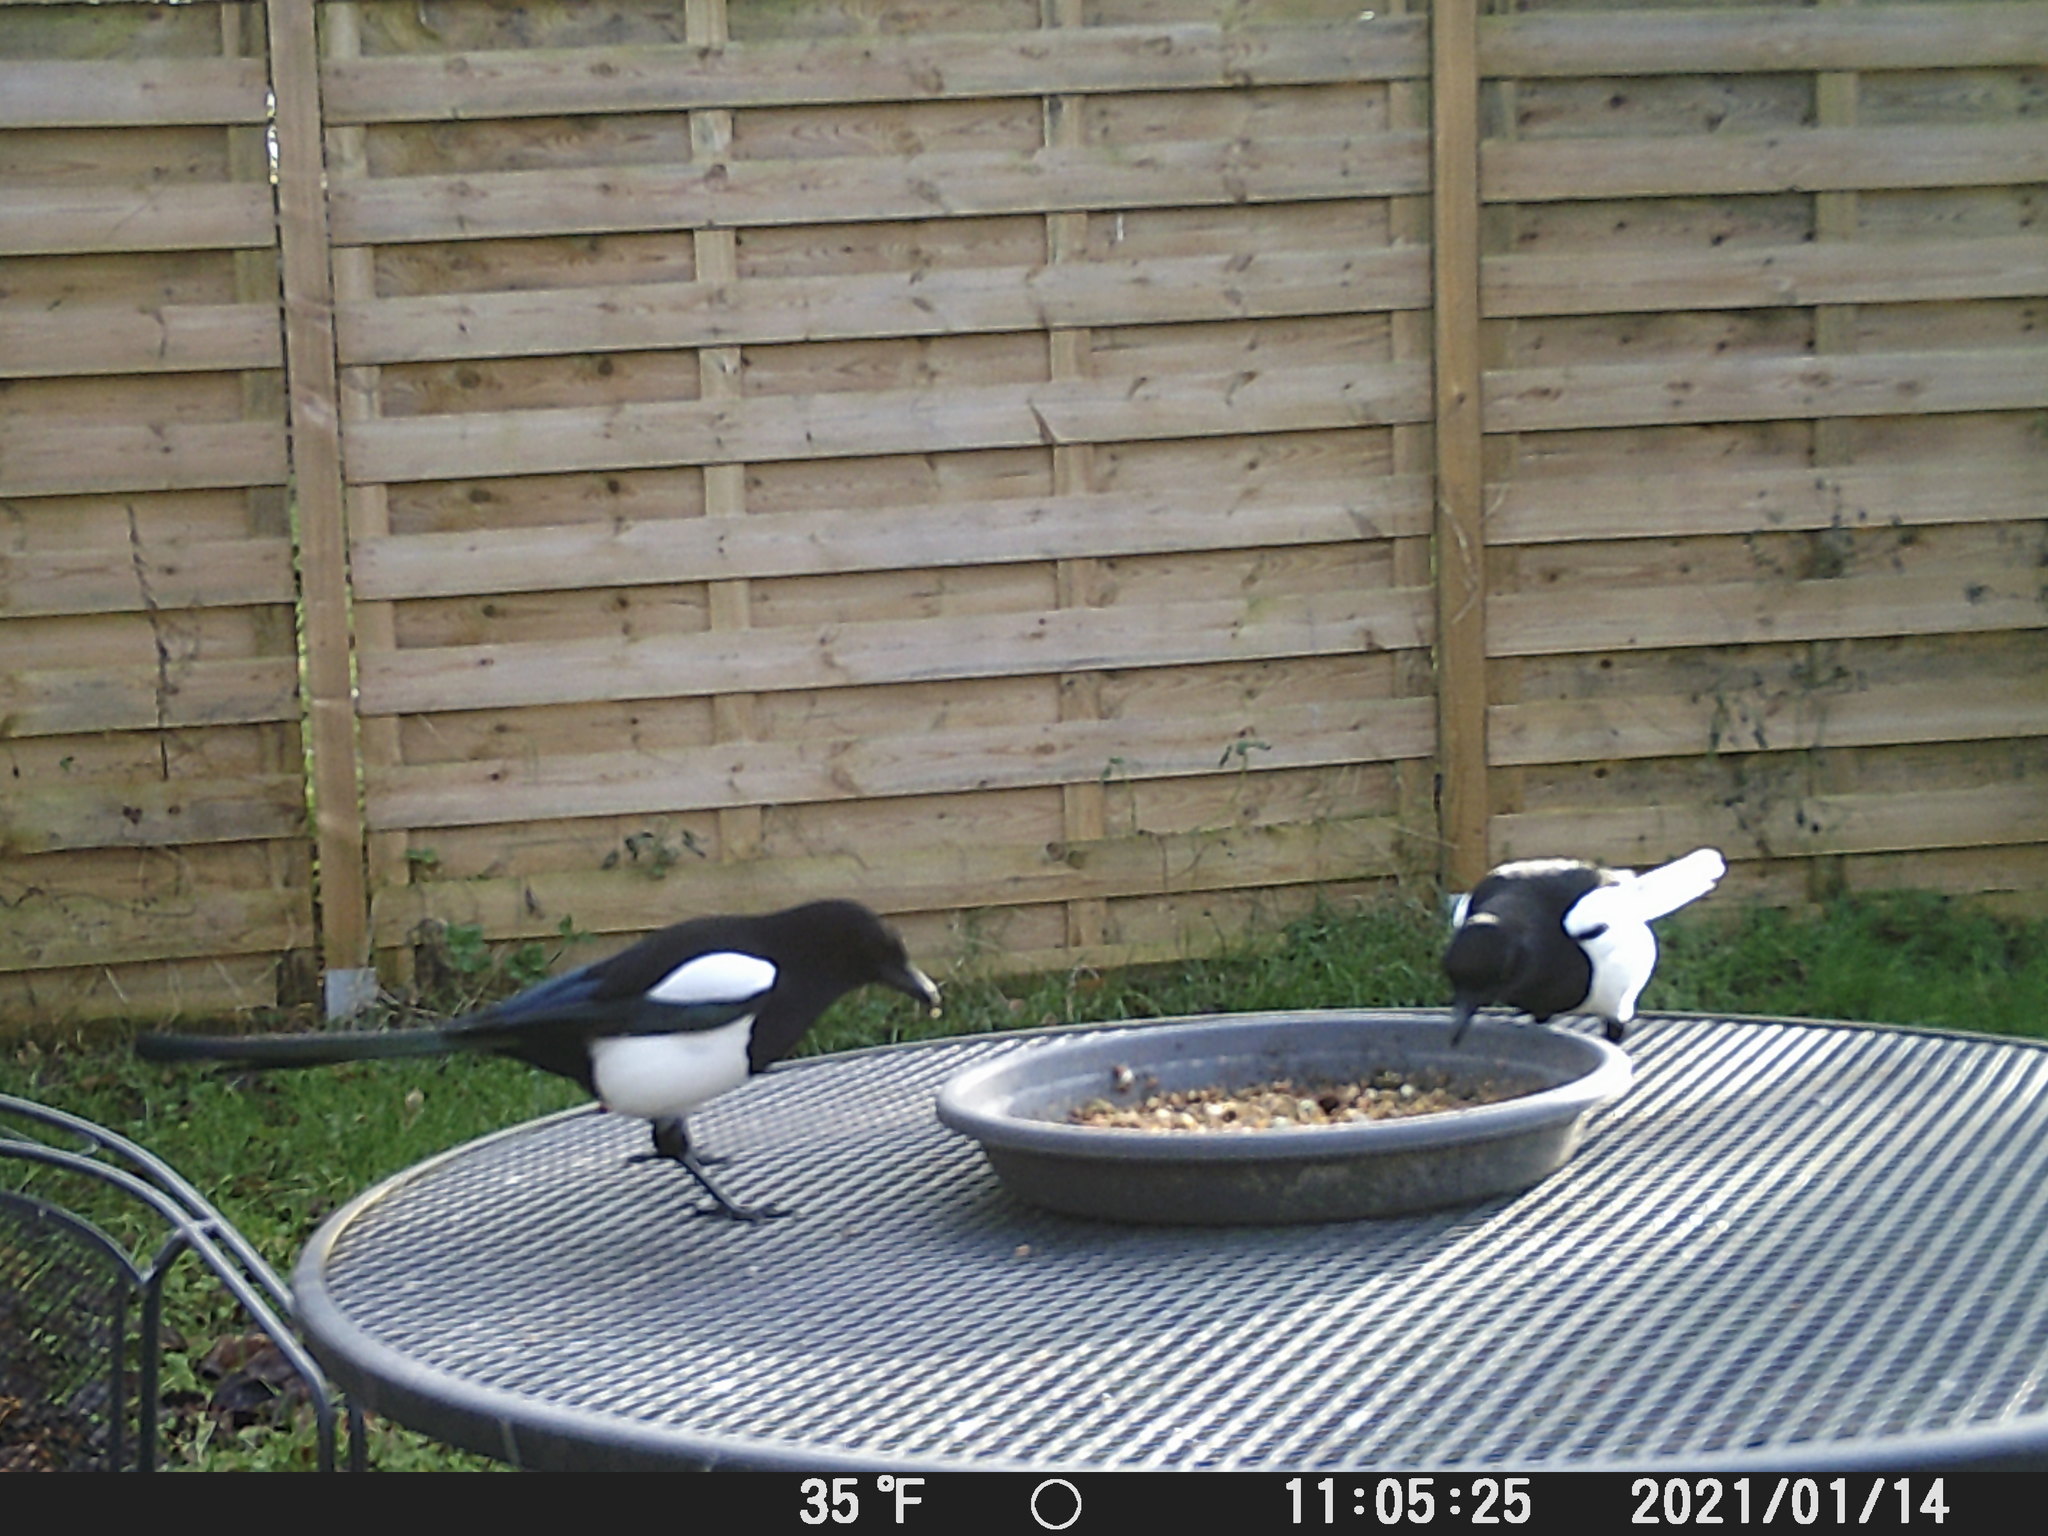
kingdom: Animalia
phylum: Chordata
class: Aves
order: Passeriformes
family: Corvidae
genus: Pica
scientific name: Pica pica
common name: Eurasian magpie
